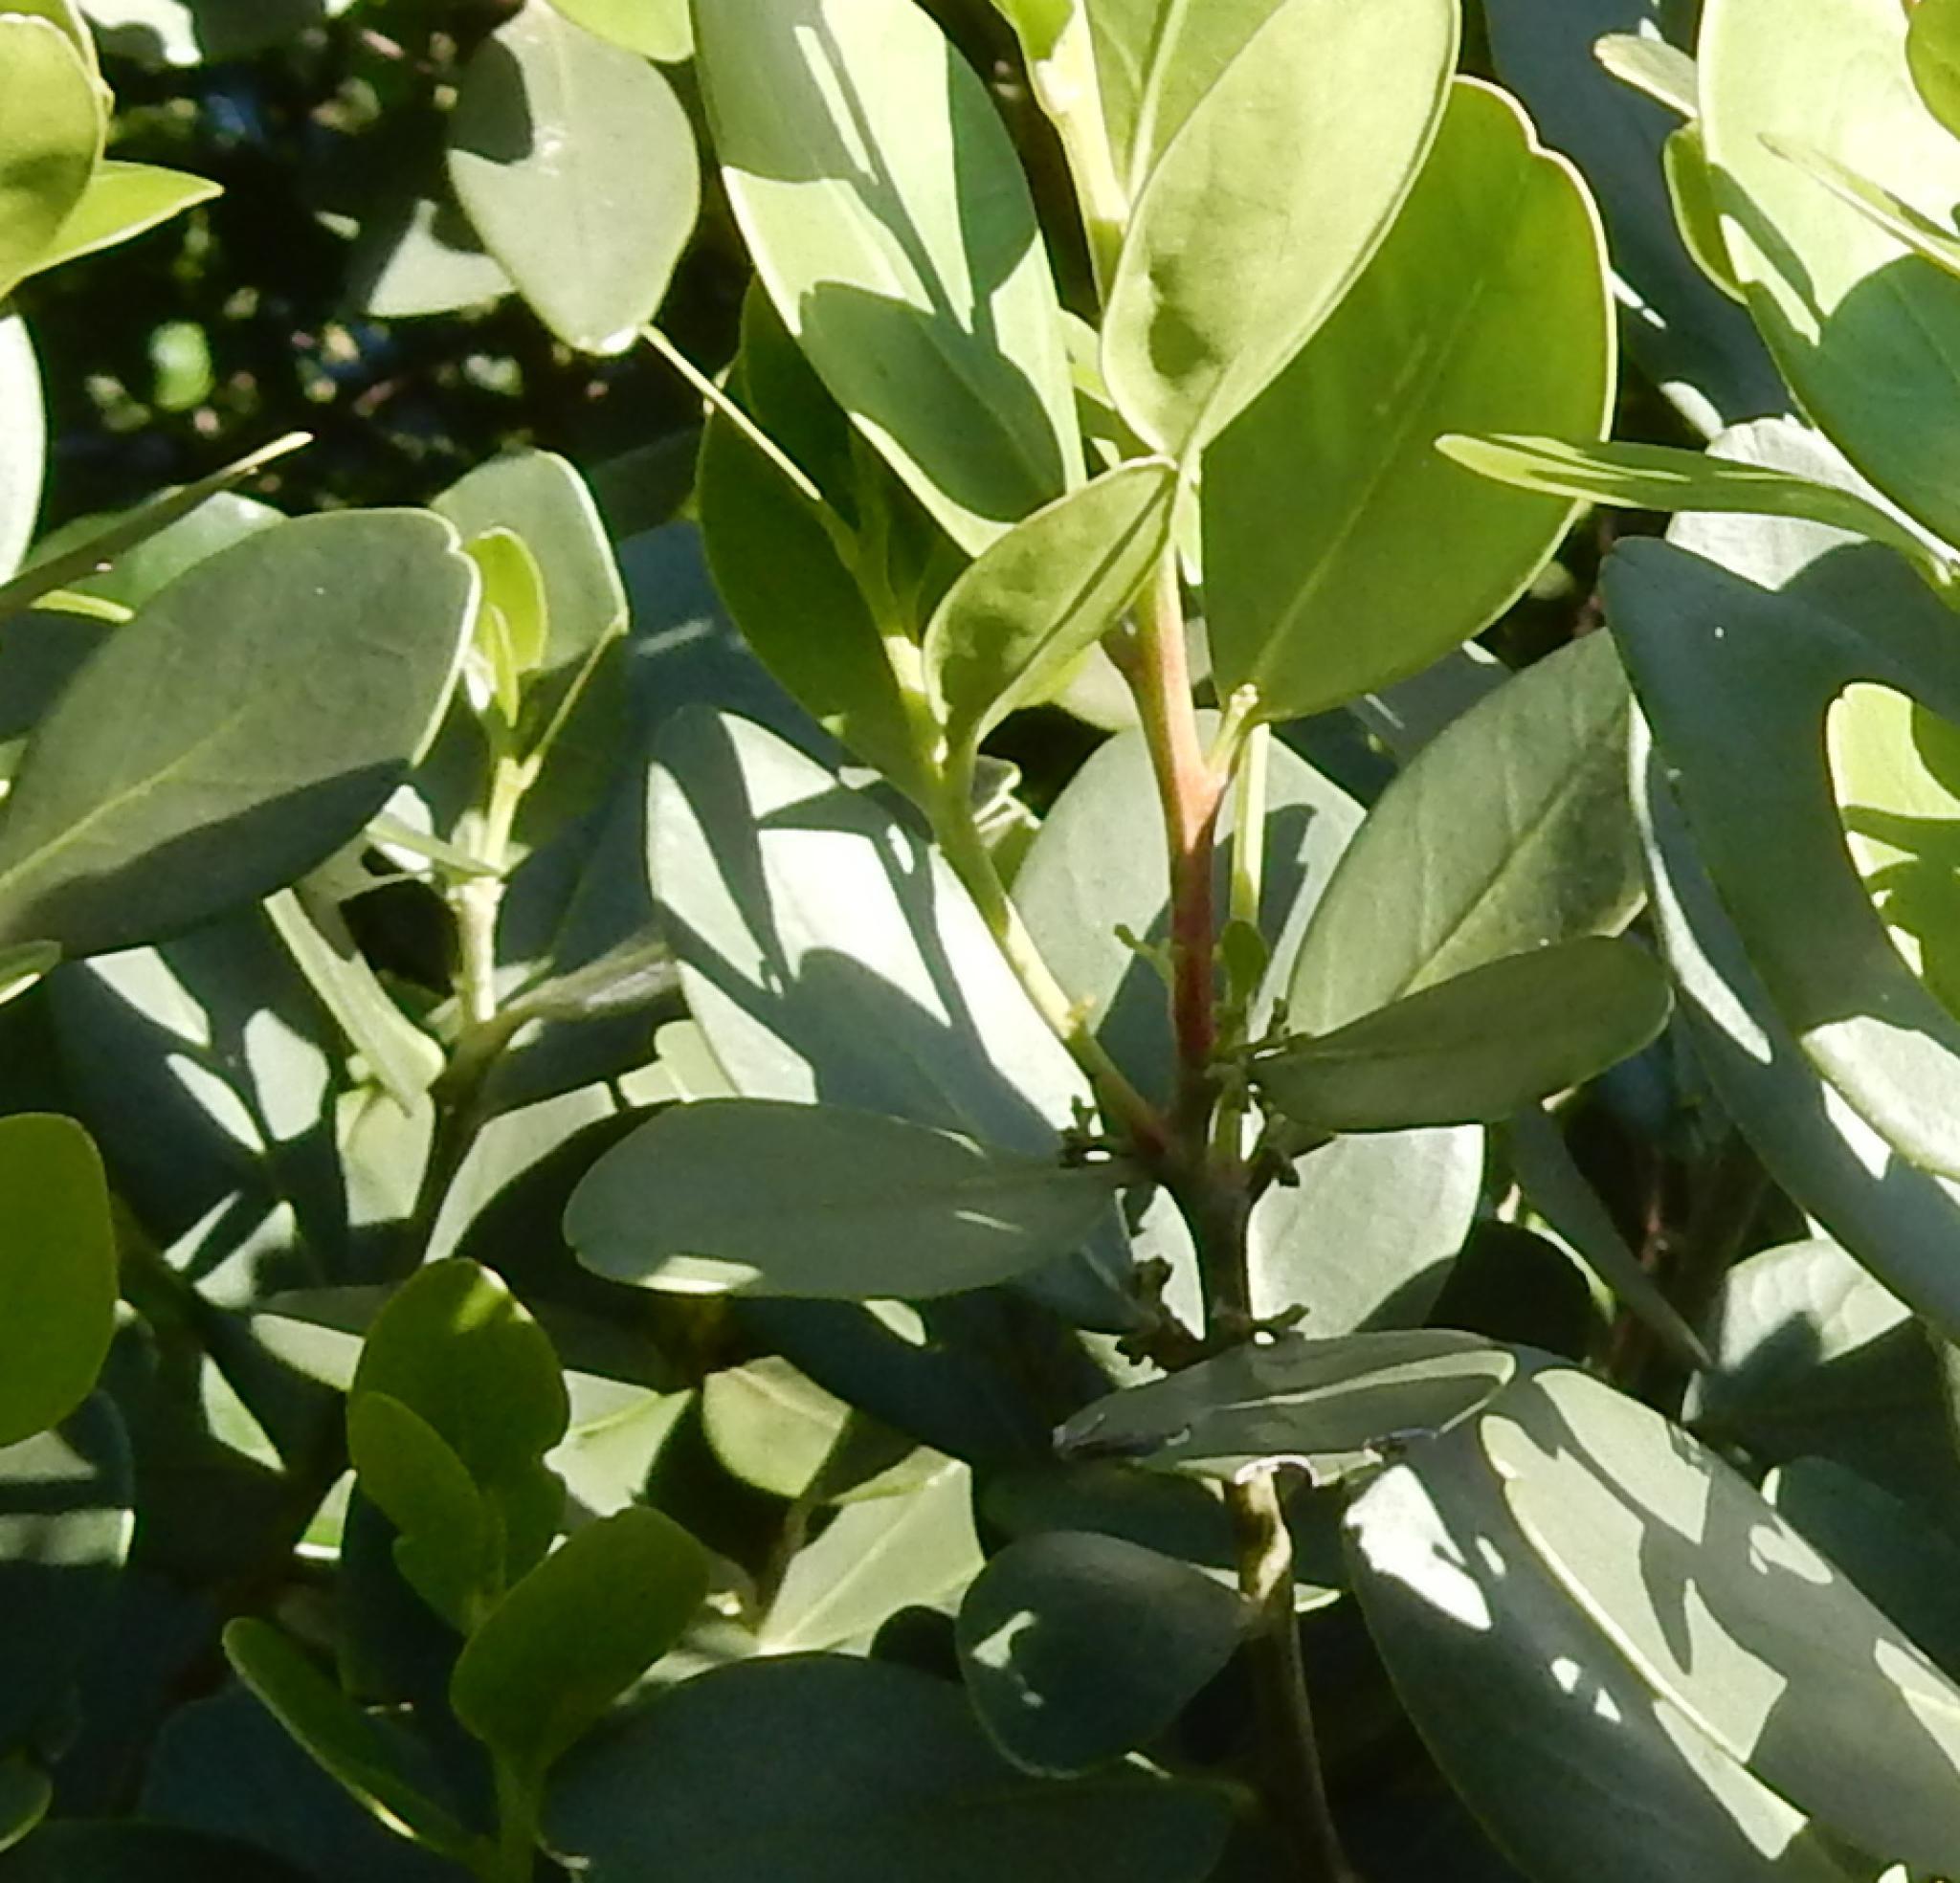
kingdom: Plantae
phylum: Tracheophyta
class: Magnoliopsida
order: Celastrales
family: Celastraceae
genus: Pterocelastrus
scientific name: Pterocelastrus tricuspidatus
